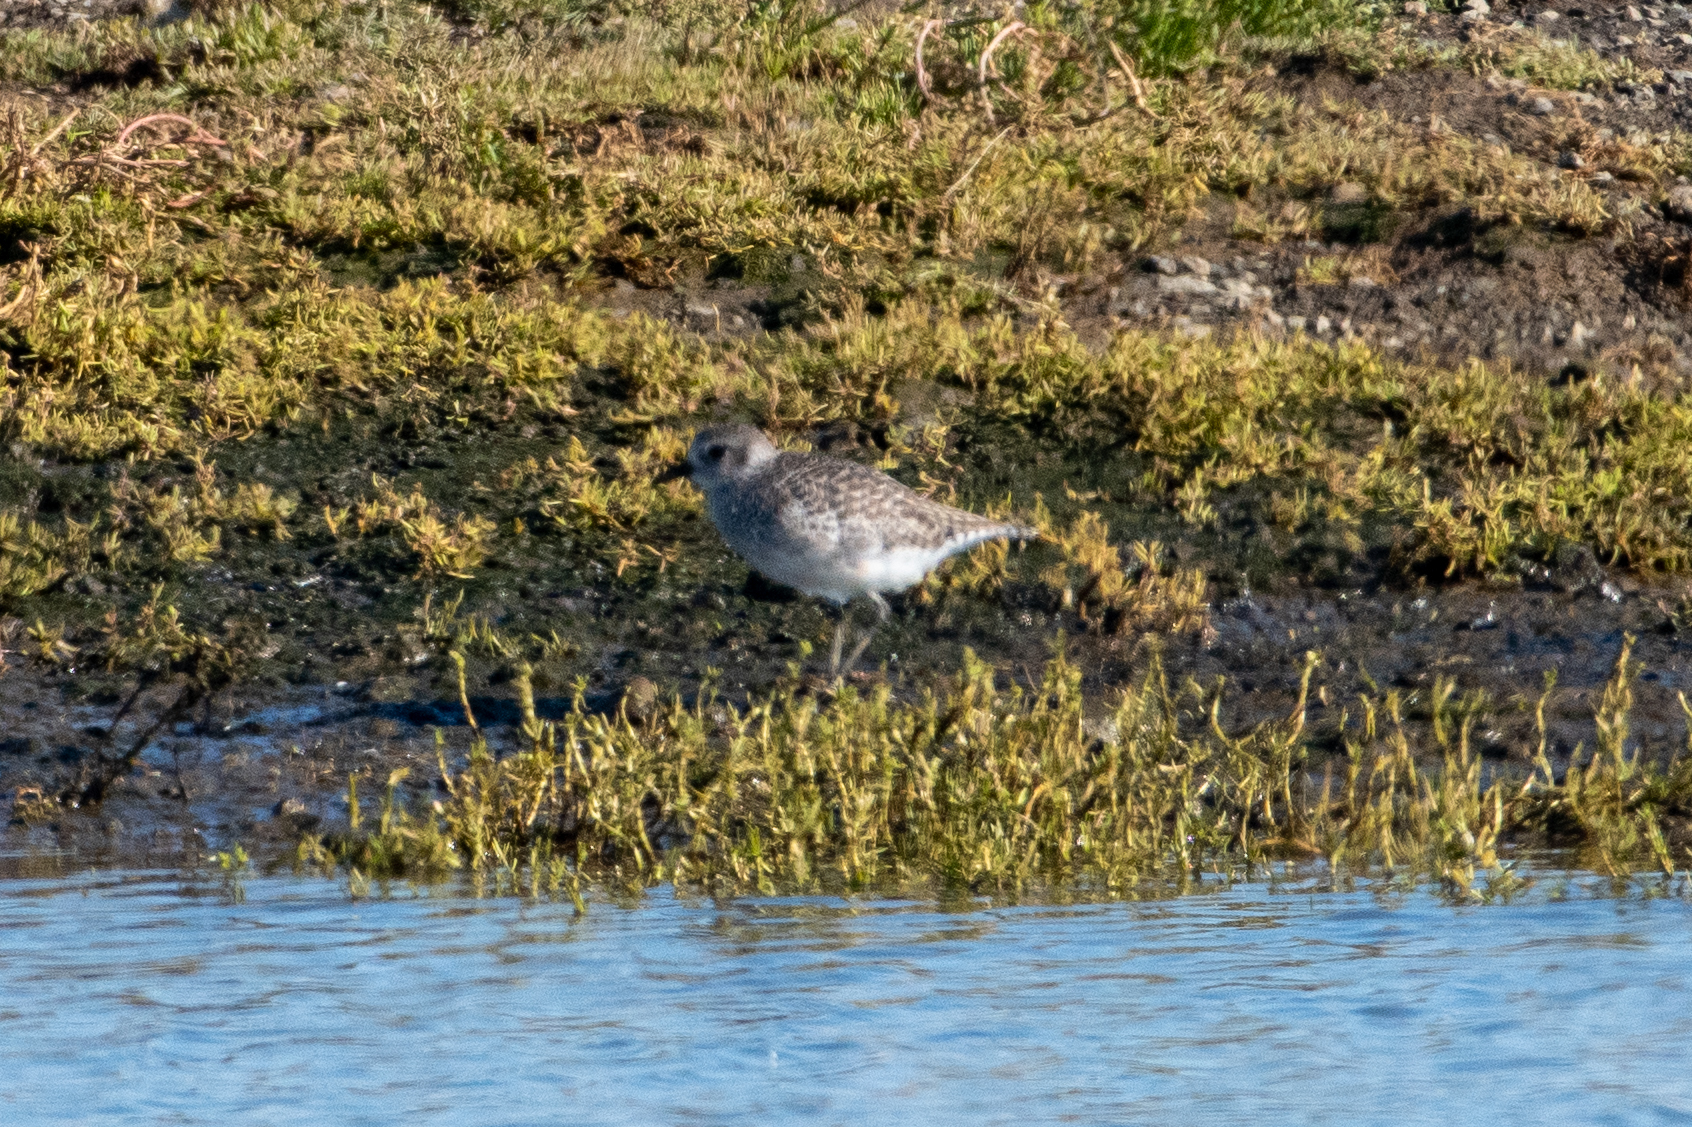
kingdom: Animalia
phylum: Chordata
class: Aves
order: Charadriiformes
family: Charadriidae
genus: Pluvialis
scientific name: Pluvialis squatarola
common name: Grey plover
